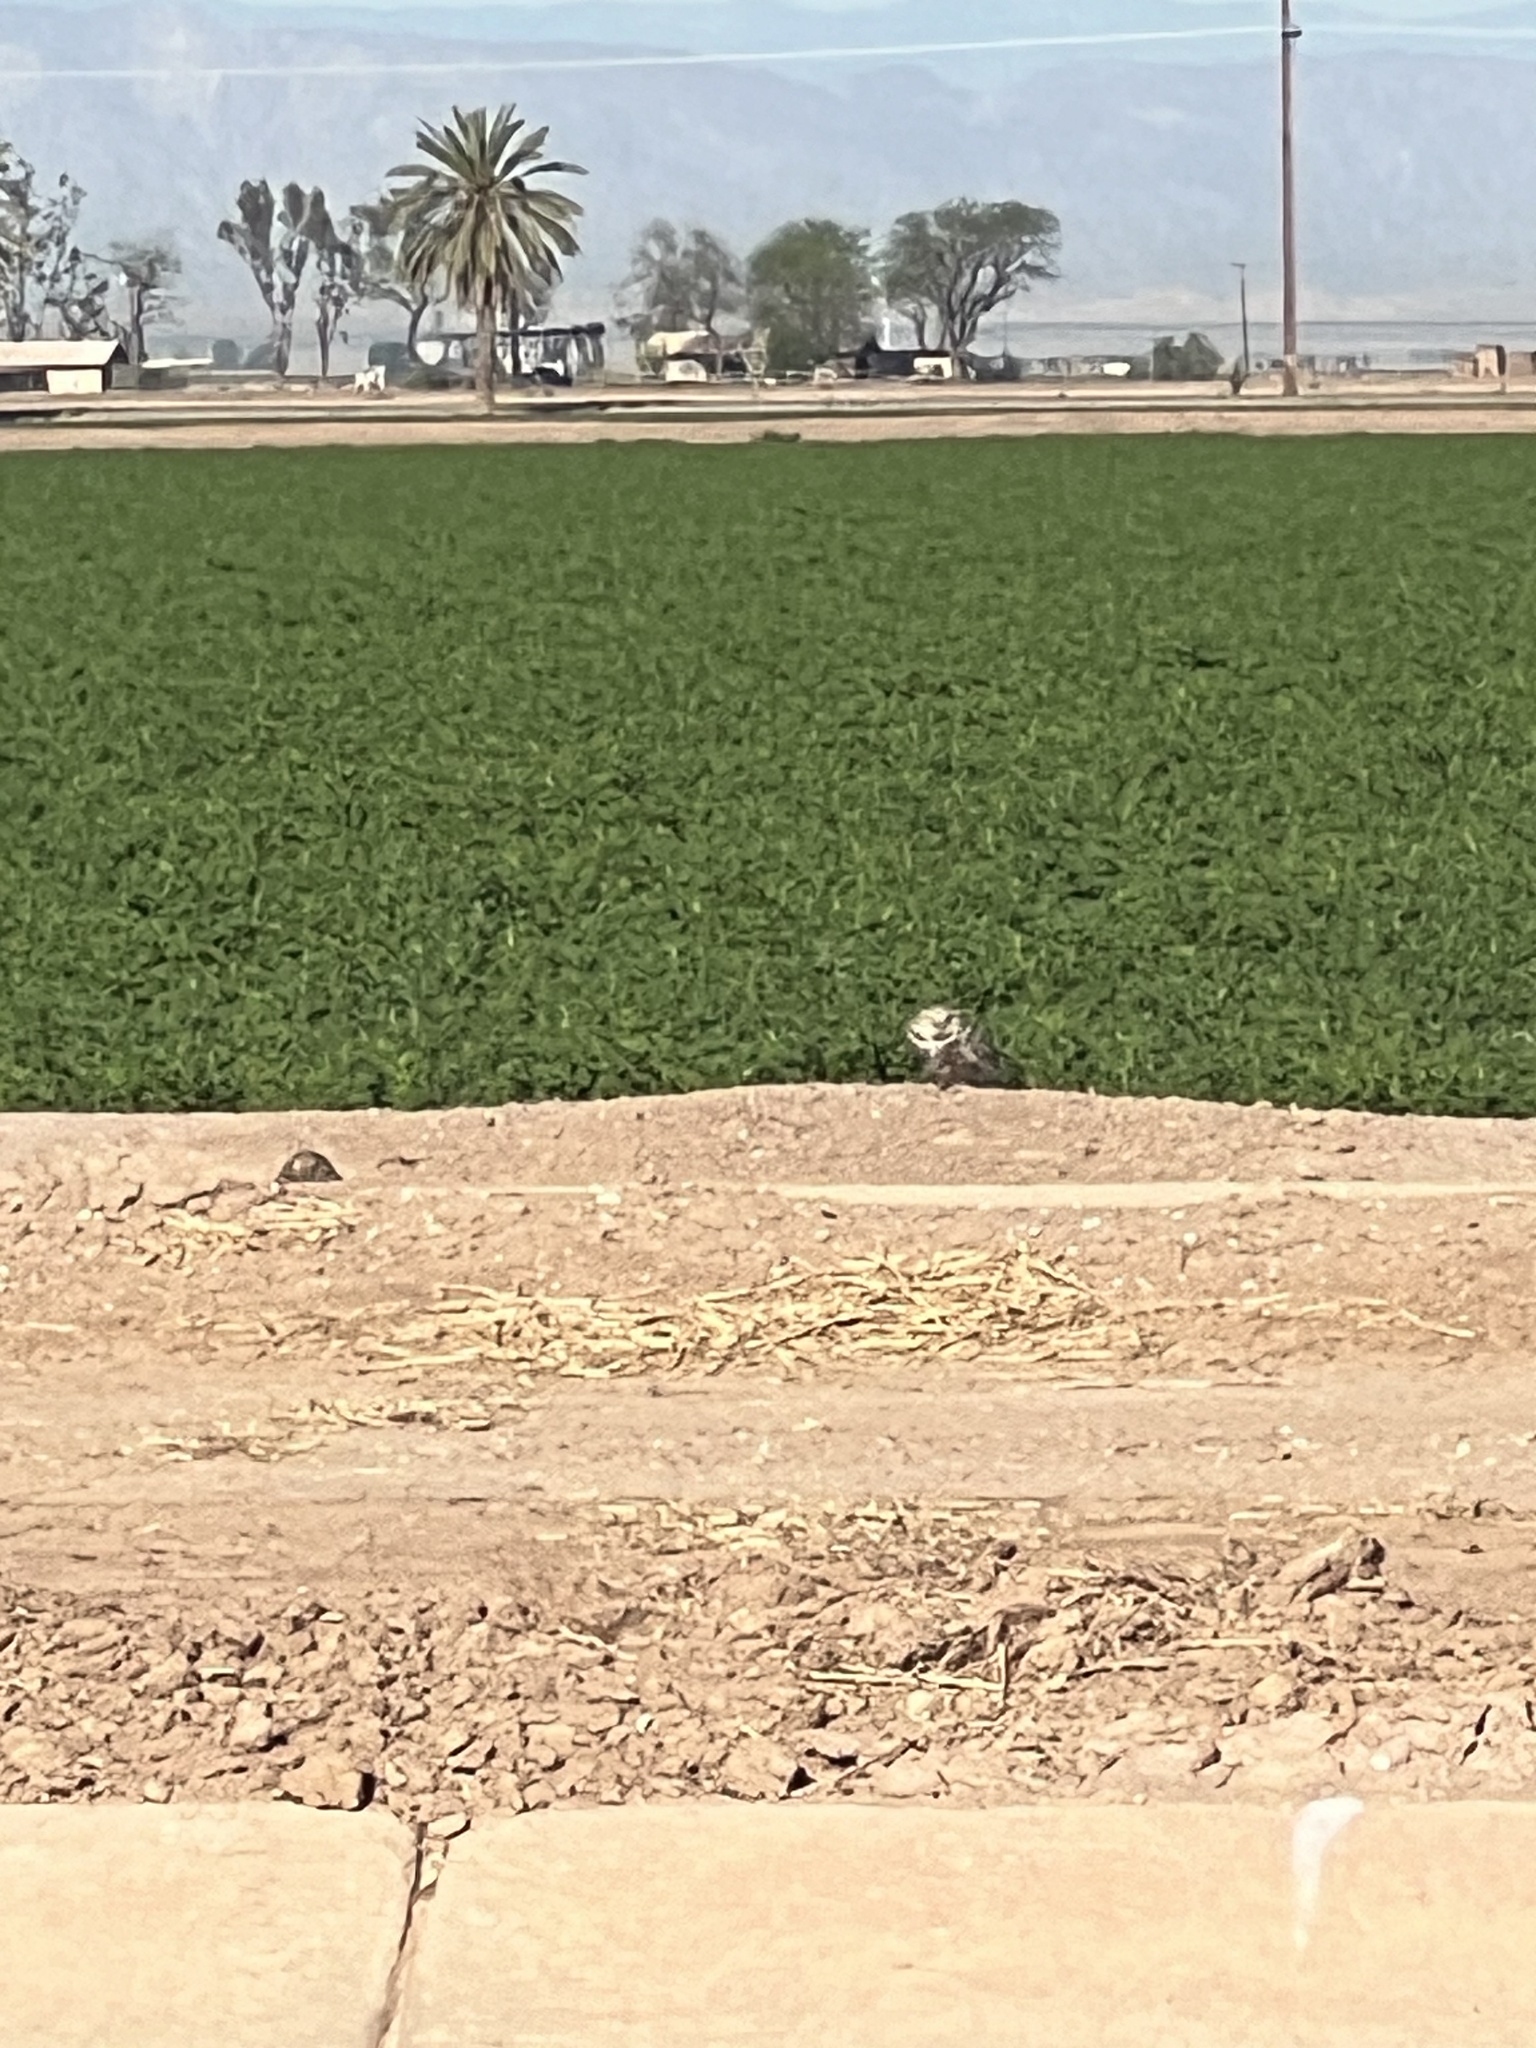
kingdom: Animalia
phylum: Chordata
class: Aves
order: Strigiformes
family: Strigidae
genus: Athene
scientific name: Athene cunicularia
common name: Burrowing owl
